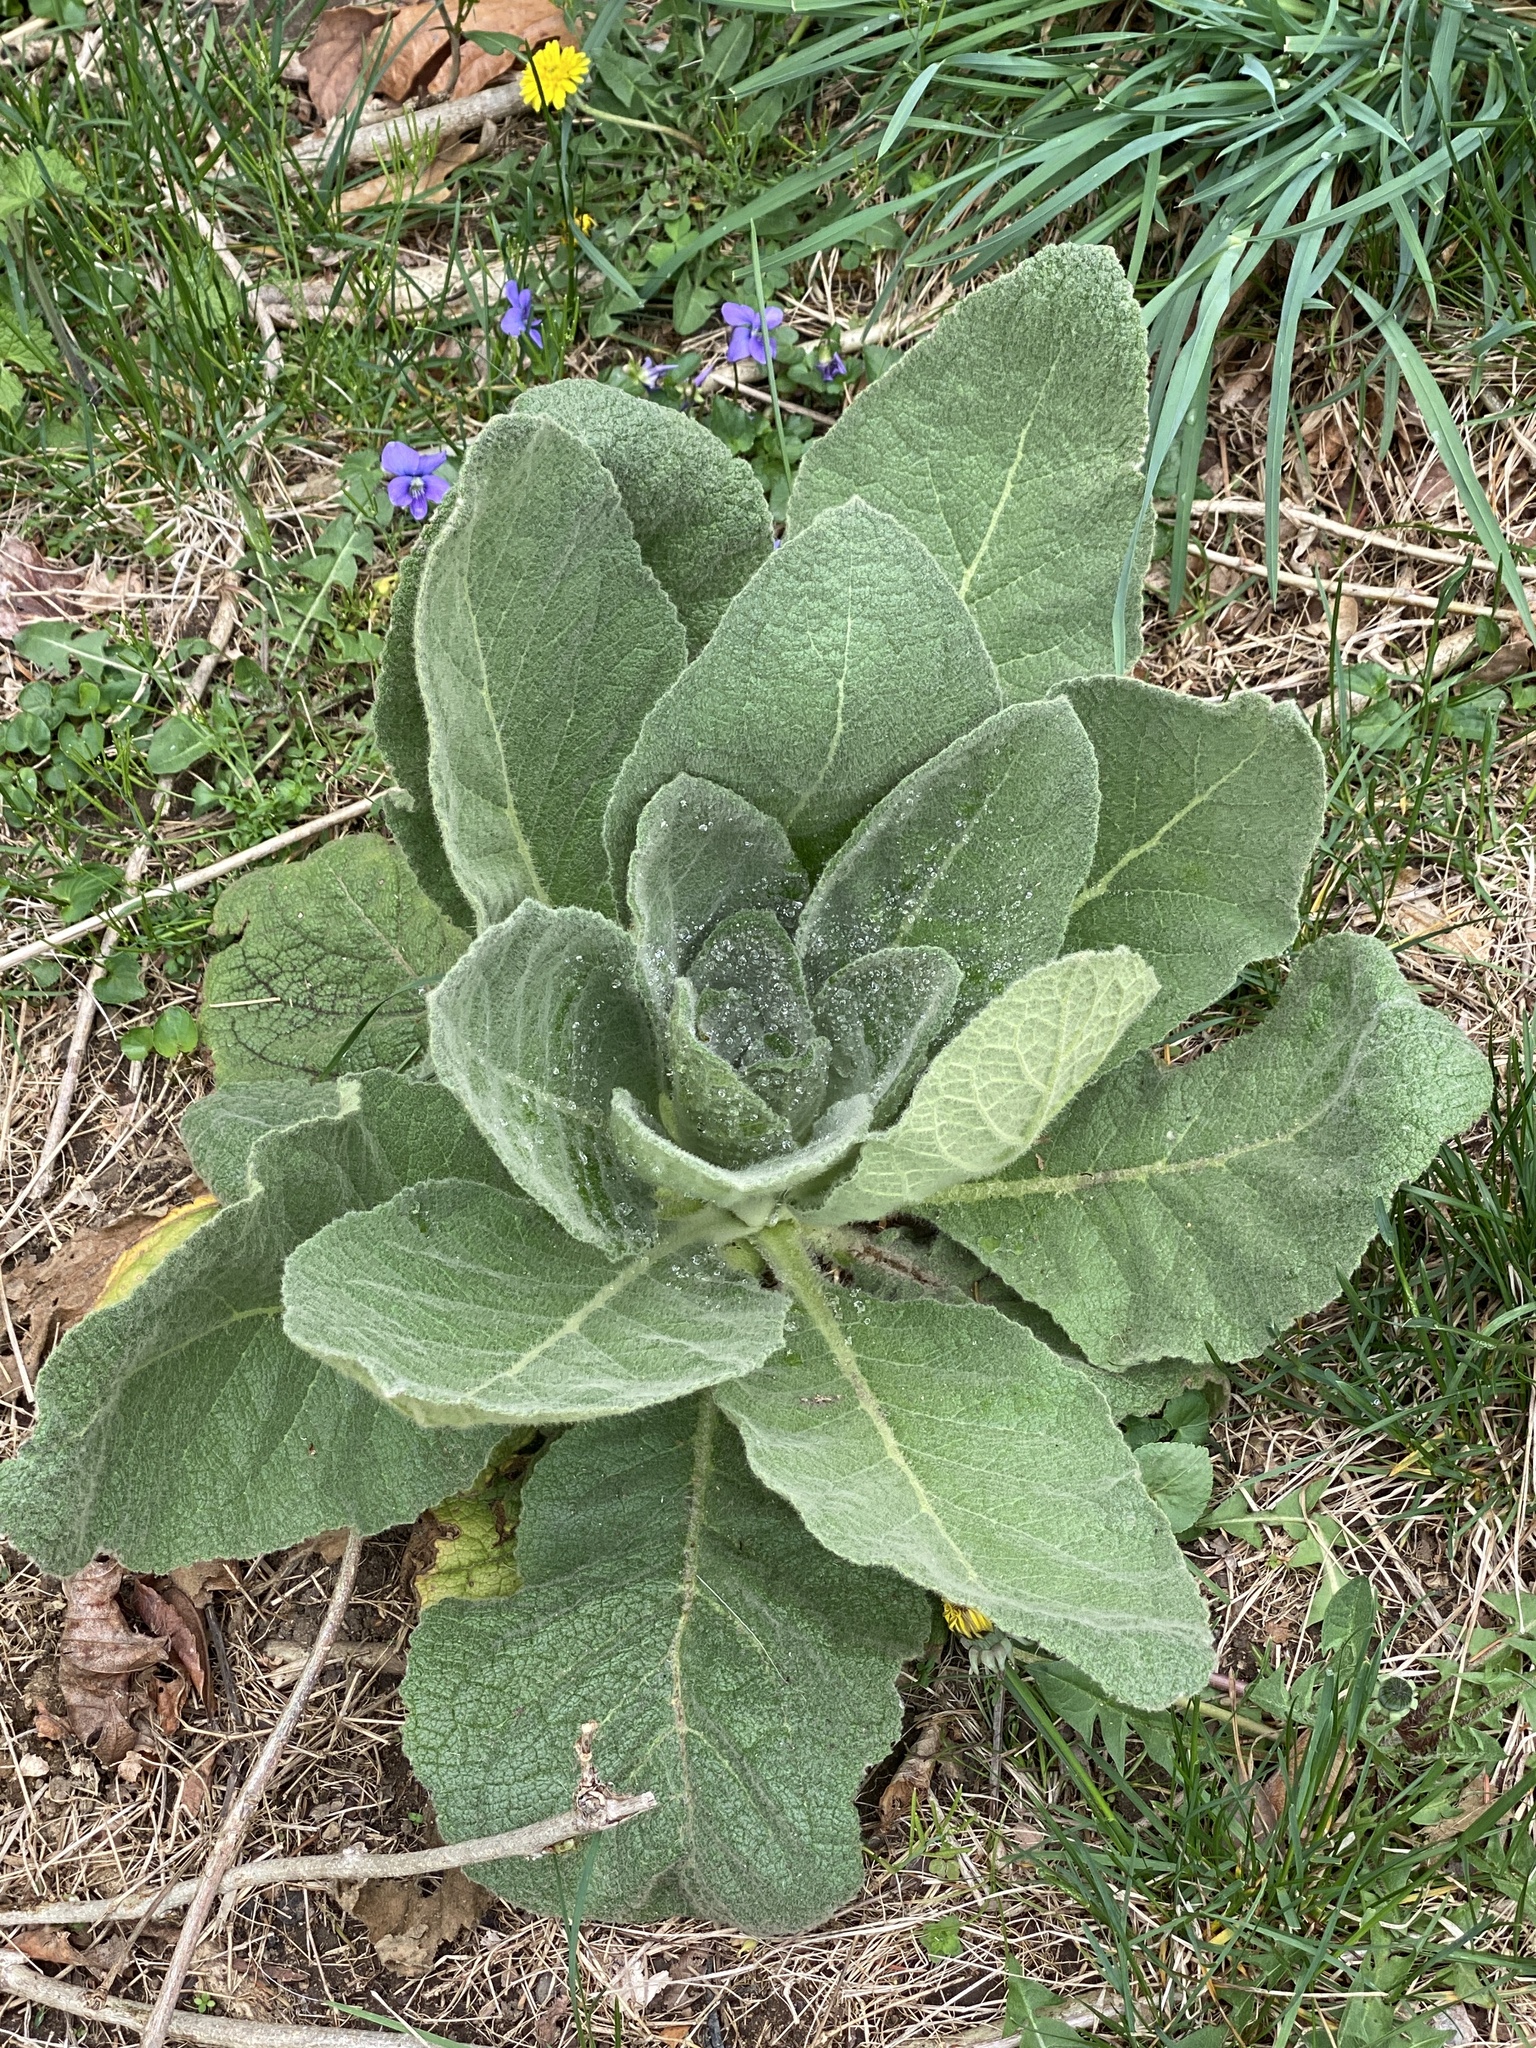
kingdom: Plantae
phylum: Tracheophyta
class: Magnoliopsida
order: Lamiales
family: Scrophulariaceae
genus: Verbascum
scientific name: Verbascum thapsus
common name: Common mullein
